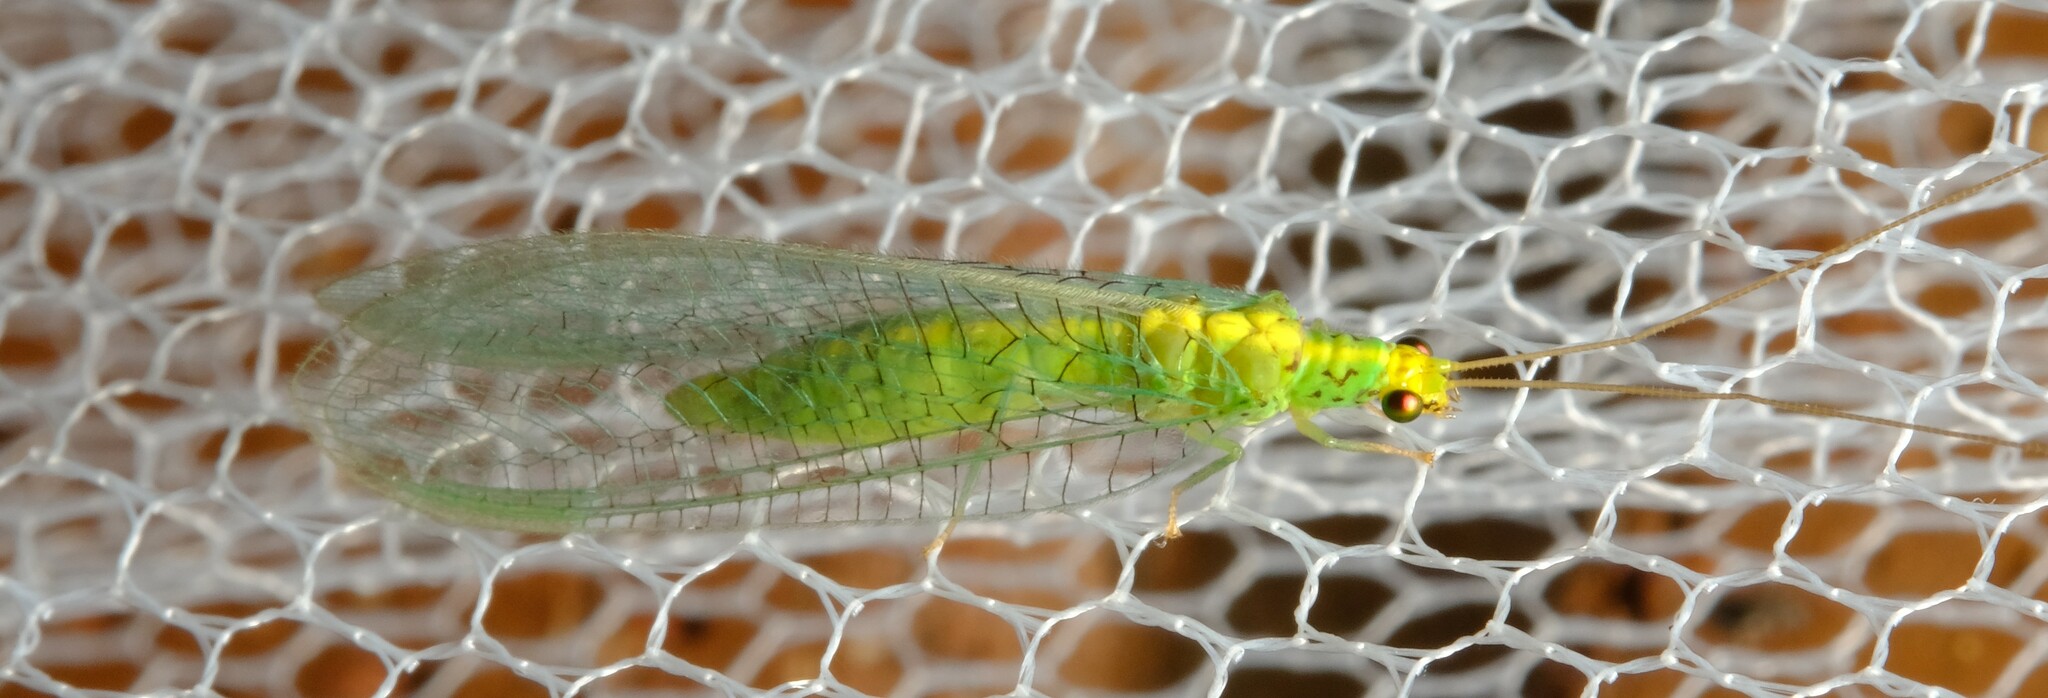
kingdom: Animalia
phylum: Arthropoda
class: Insecta
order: Neuroptera
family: Chrysopidae
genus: Pseudomallada
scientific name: Pseudomallada edwardsi
